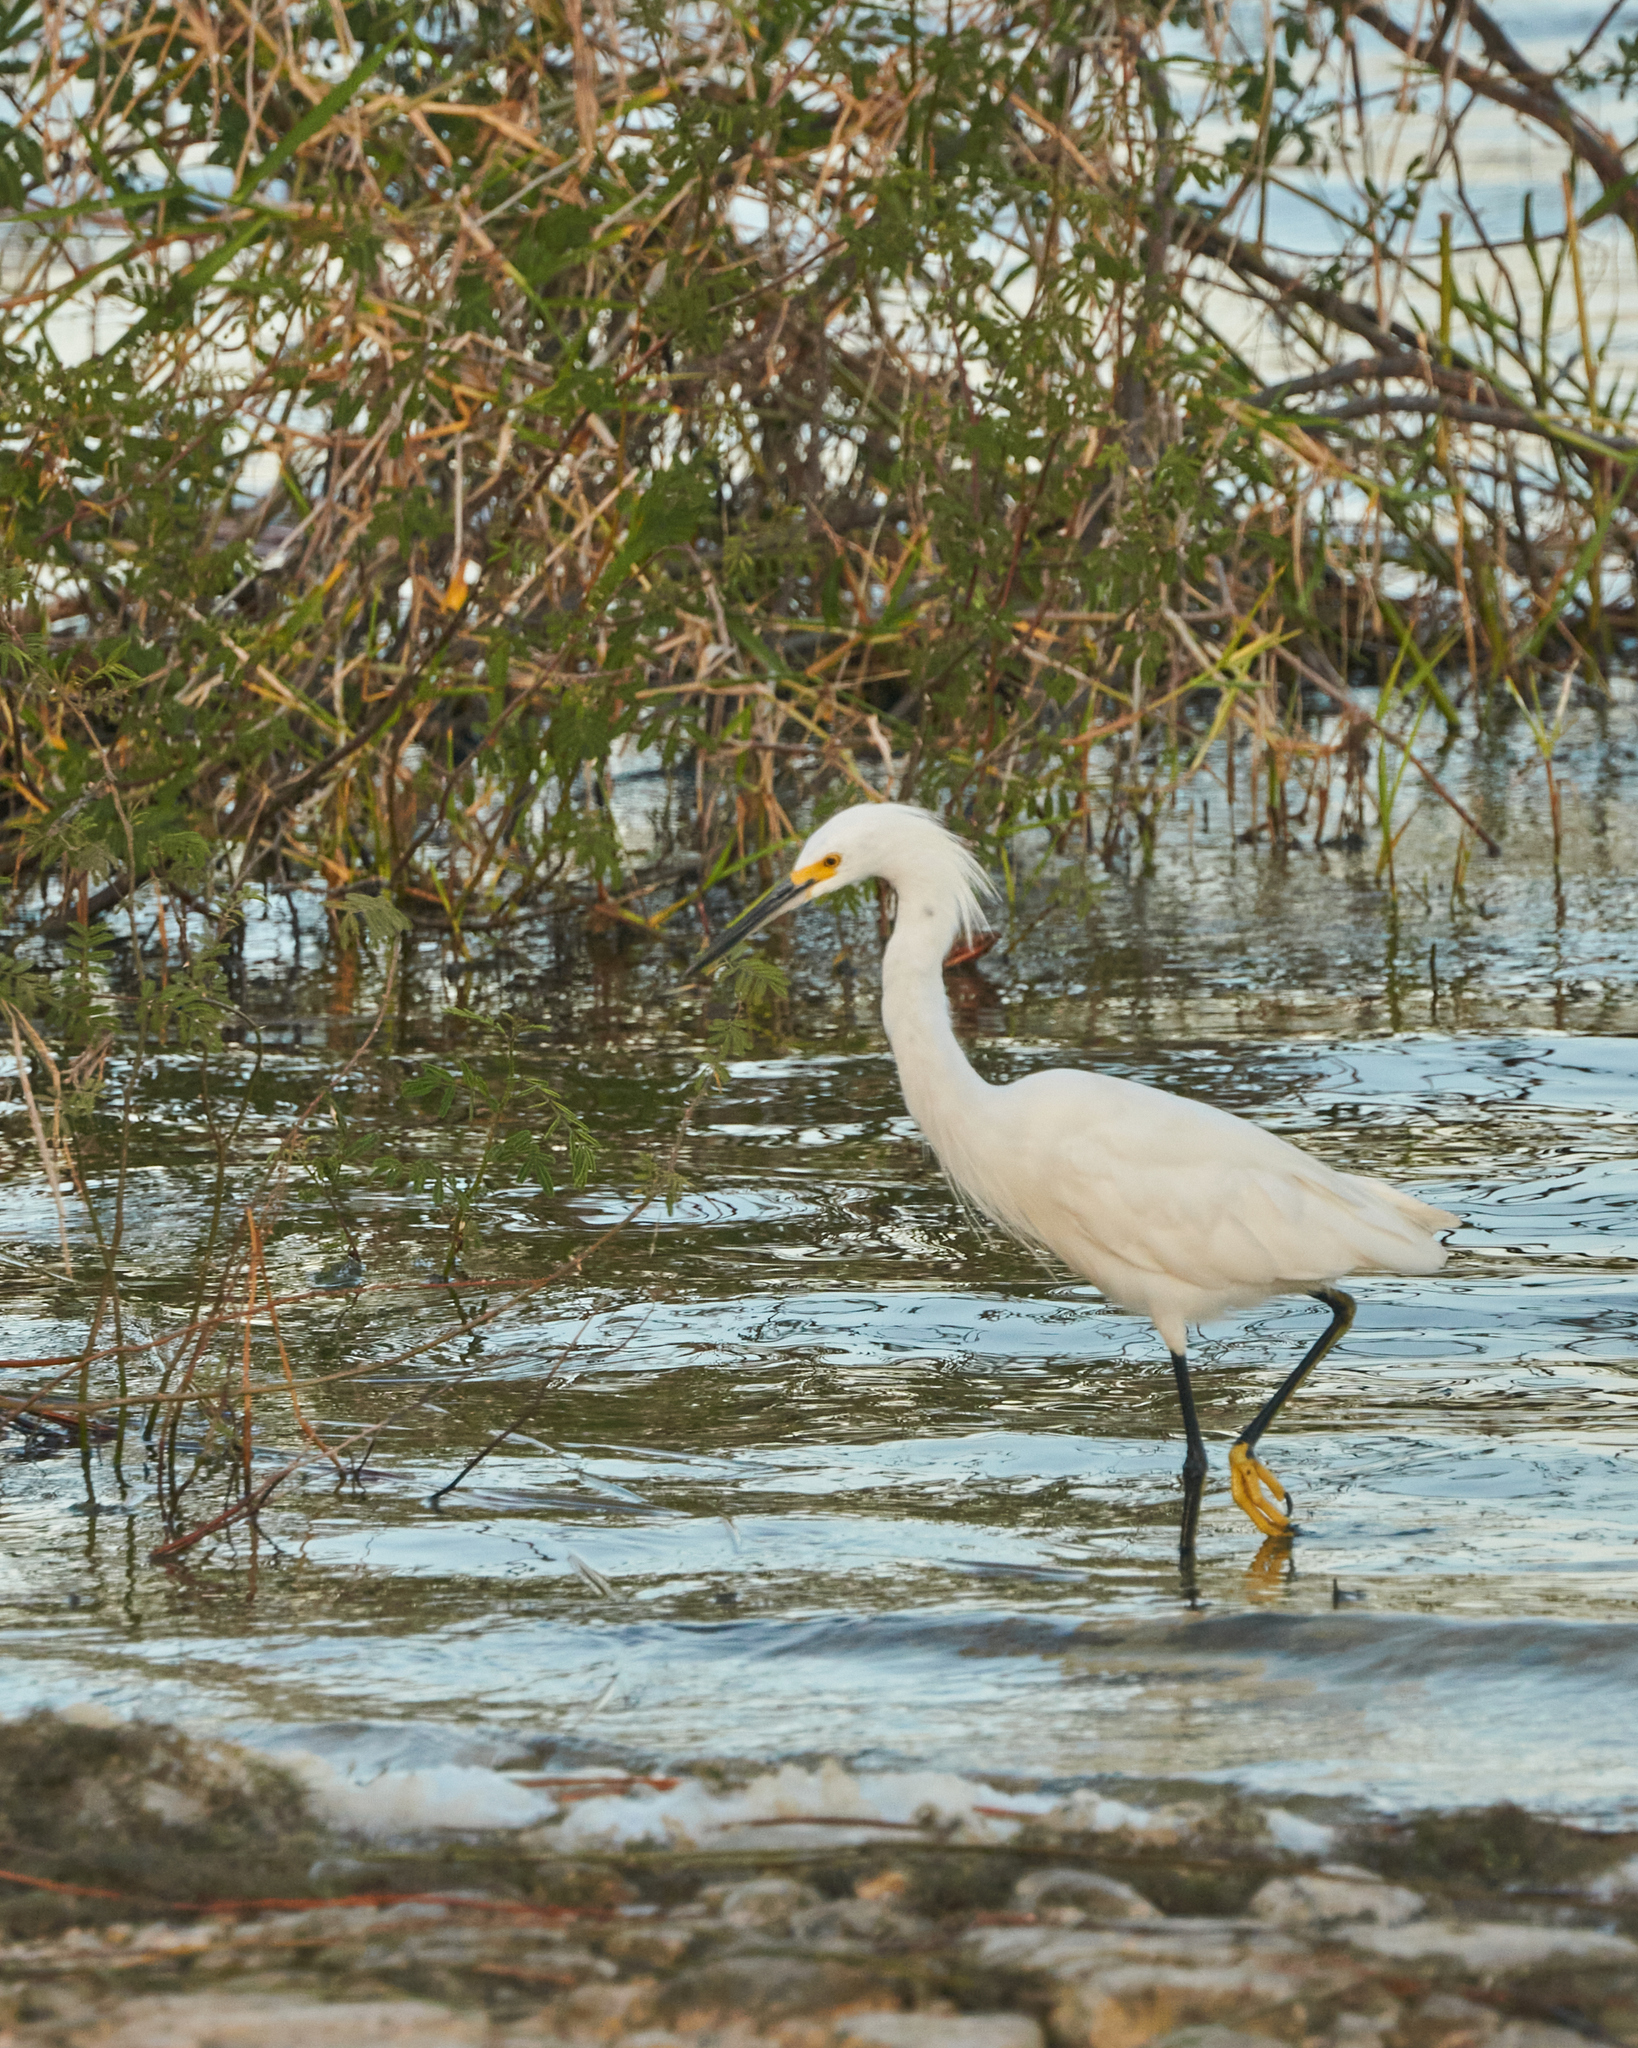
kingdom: Animalia
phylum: Chordata
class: Aves
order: Pelecaniformes
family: Ardeidae
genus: Egretta
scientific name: Egretta thula
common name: Snowy egret
